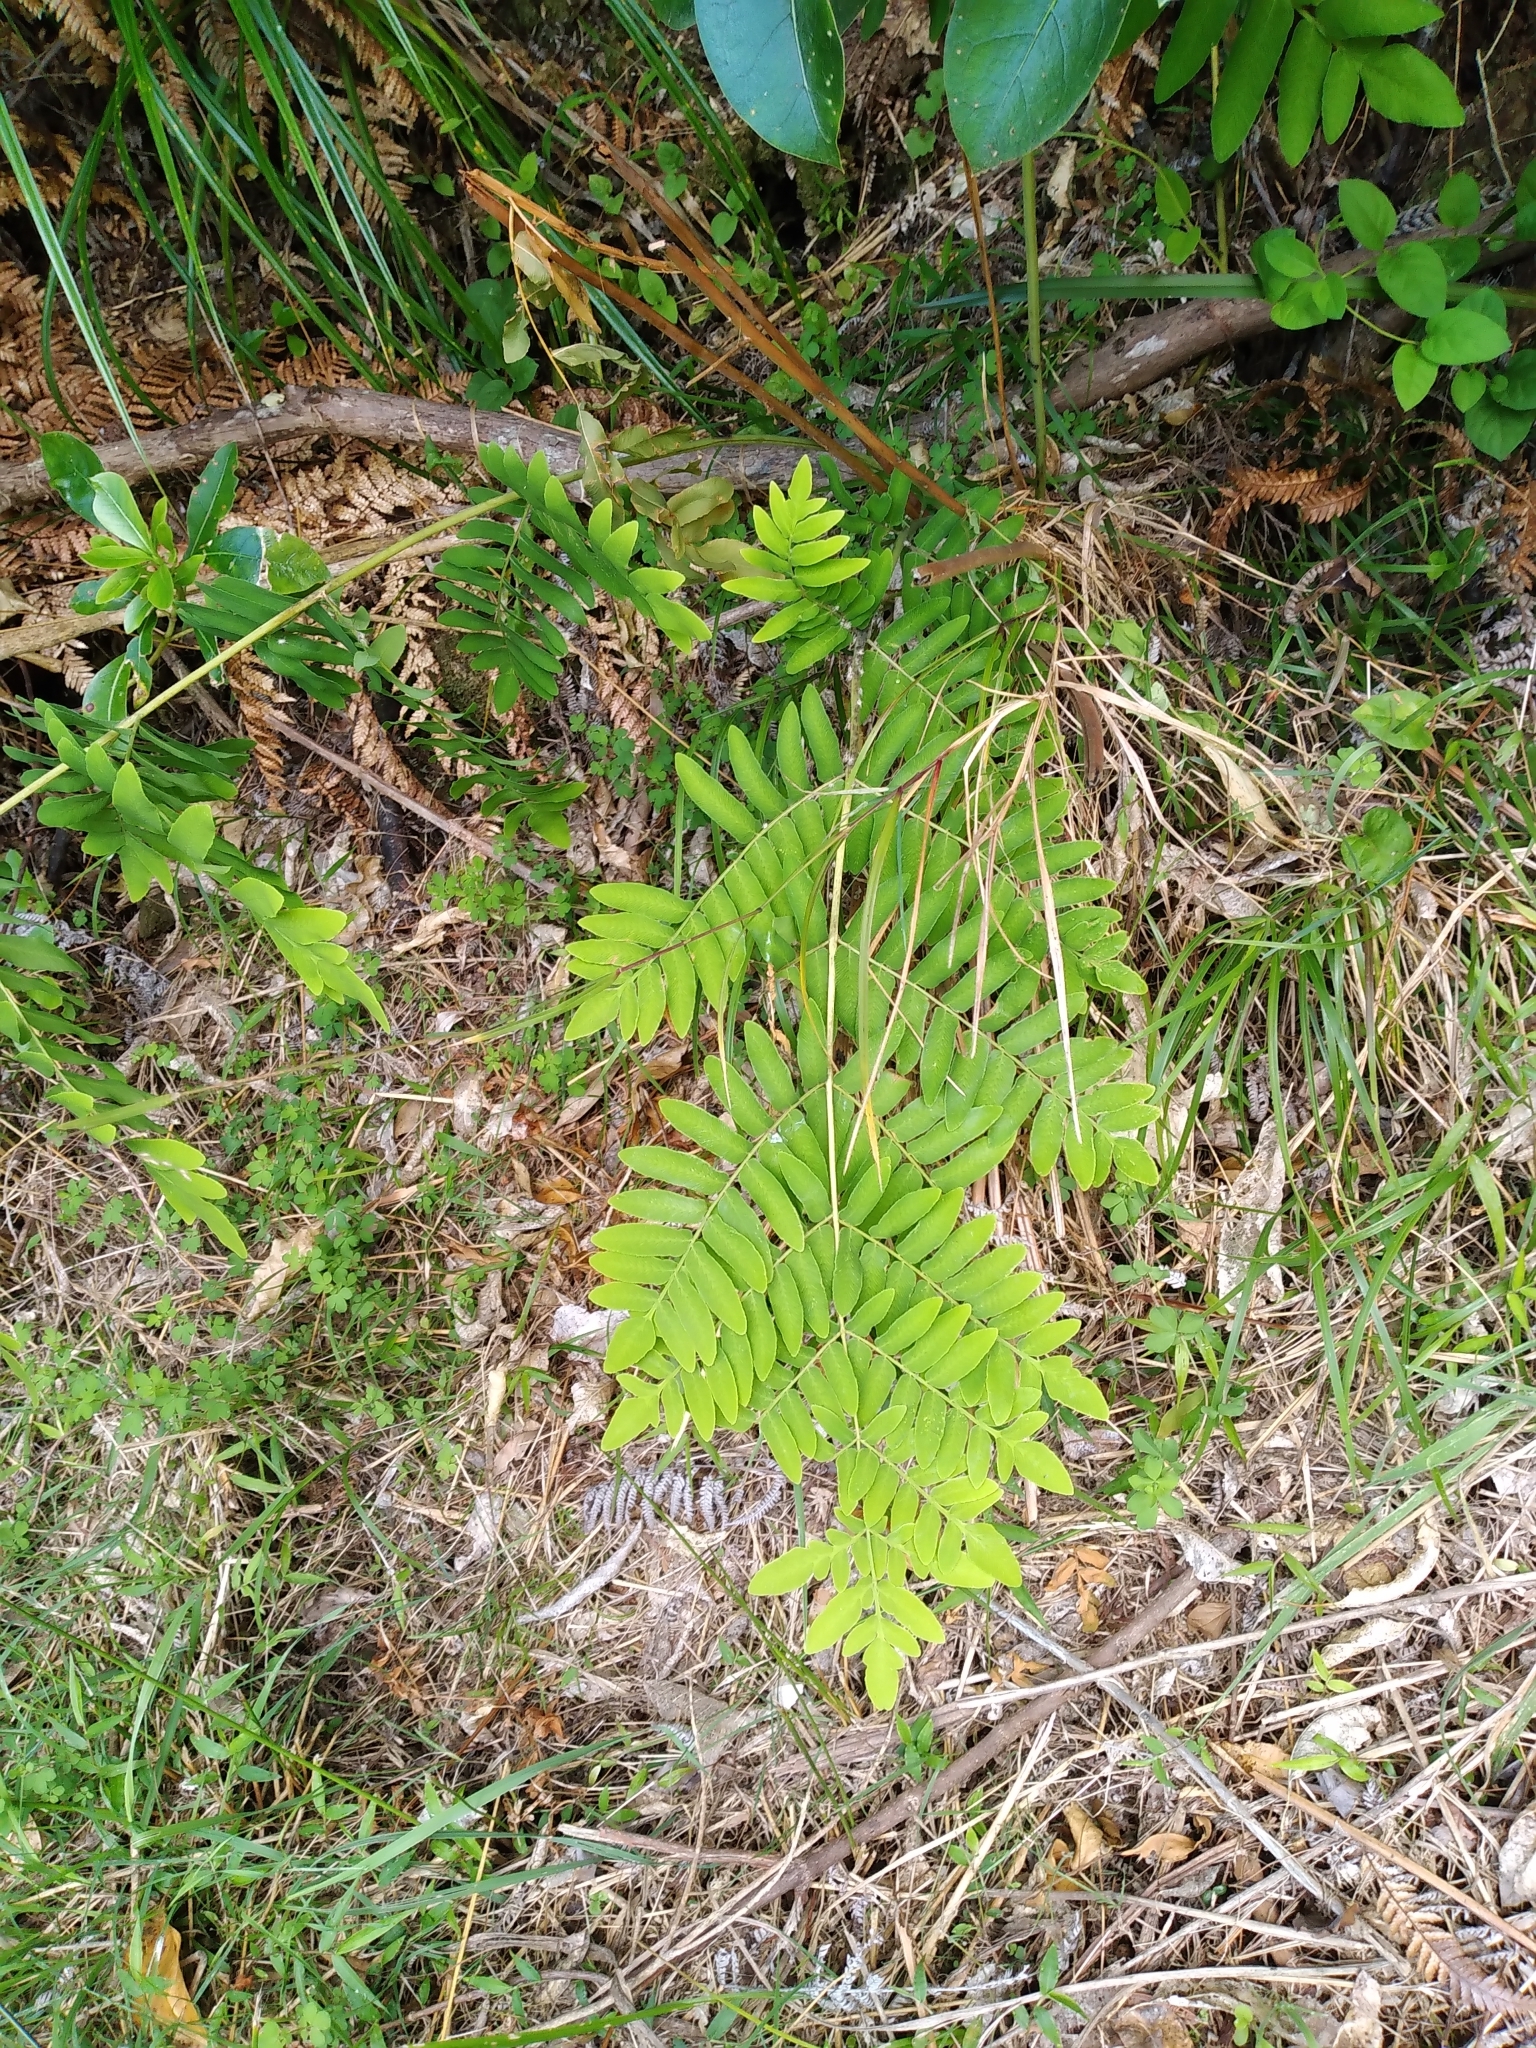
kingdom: Plantae
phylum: Tracheophyta
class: Polypodiopsida
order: Osmundales
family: Osmundaceae
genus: Osmunda
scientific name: Osmunda regalis
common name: Royal fern
